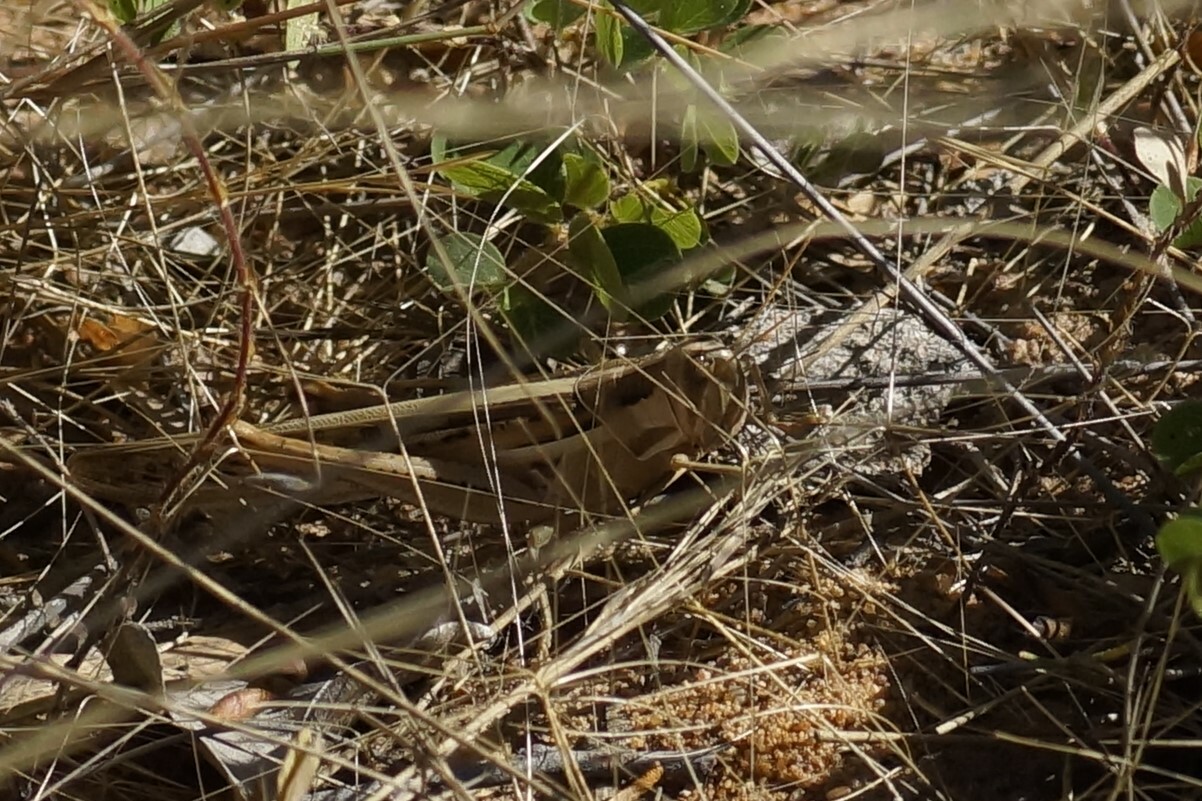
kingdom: Animalia
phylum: Arthropoda
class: Insecta
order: Orthoptera
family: Acrididae
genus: Austracris
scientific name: Austracris guttulosa
